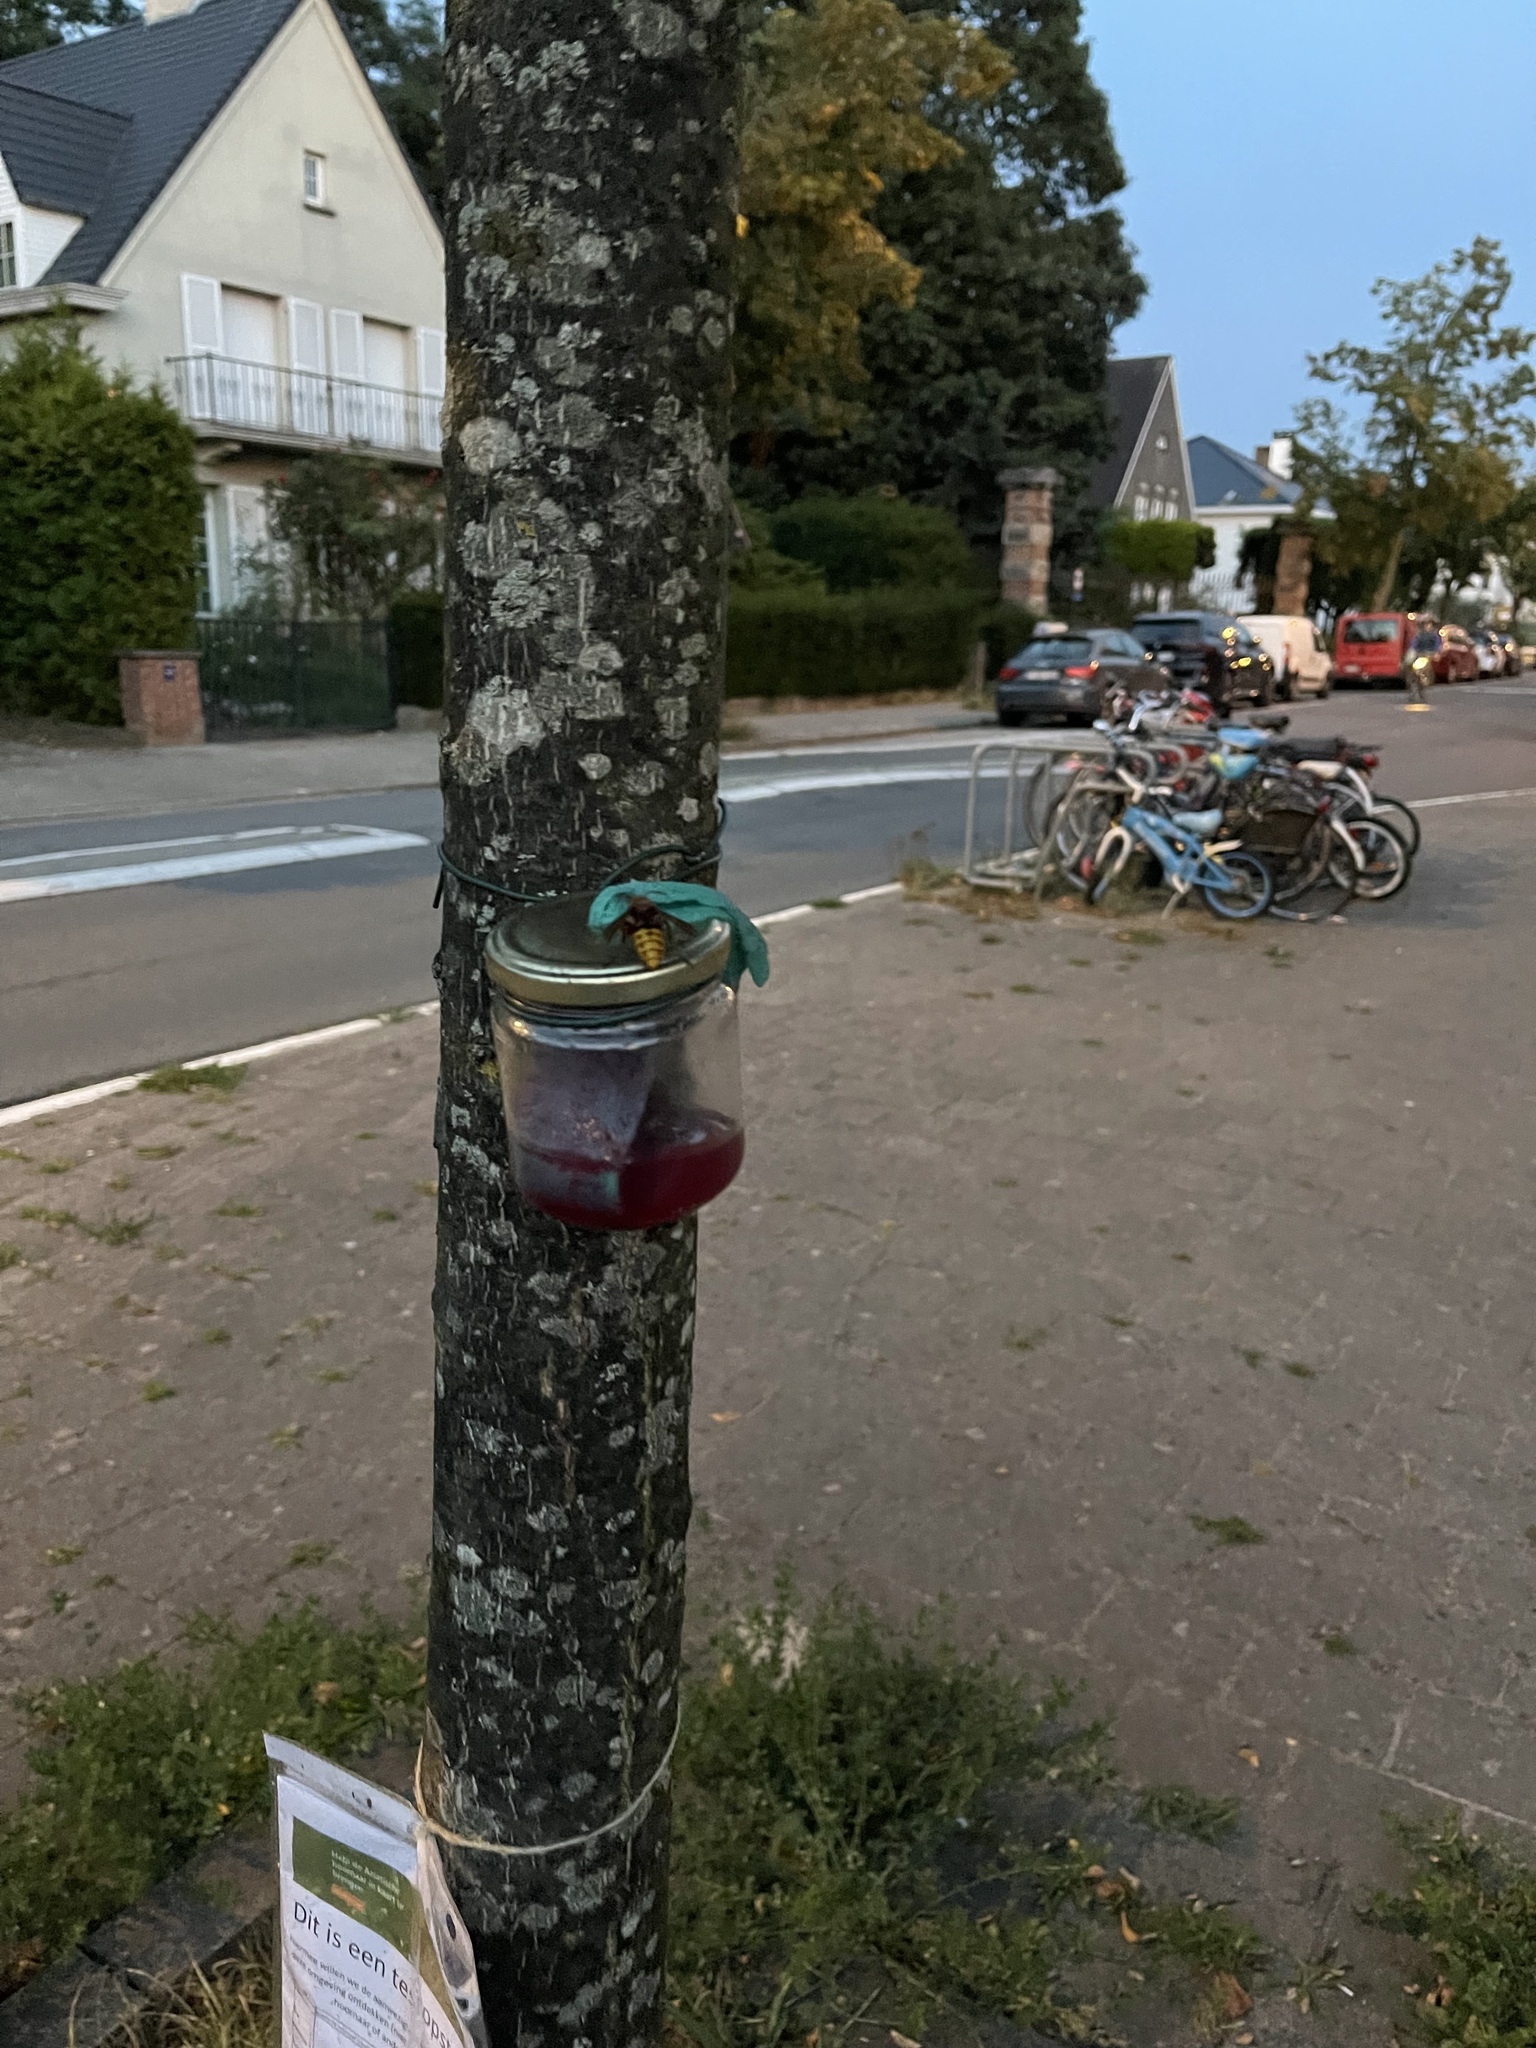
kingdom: Animalia
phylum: Arthropoda
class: Insecta
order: Hymenoptera
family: Vespidae
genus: Vespa
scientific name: Vespa crabro
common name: Hornet
